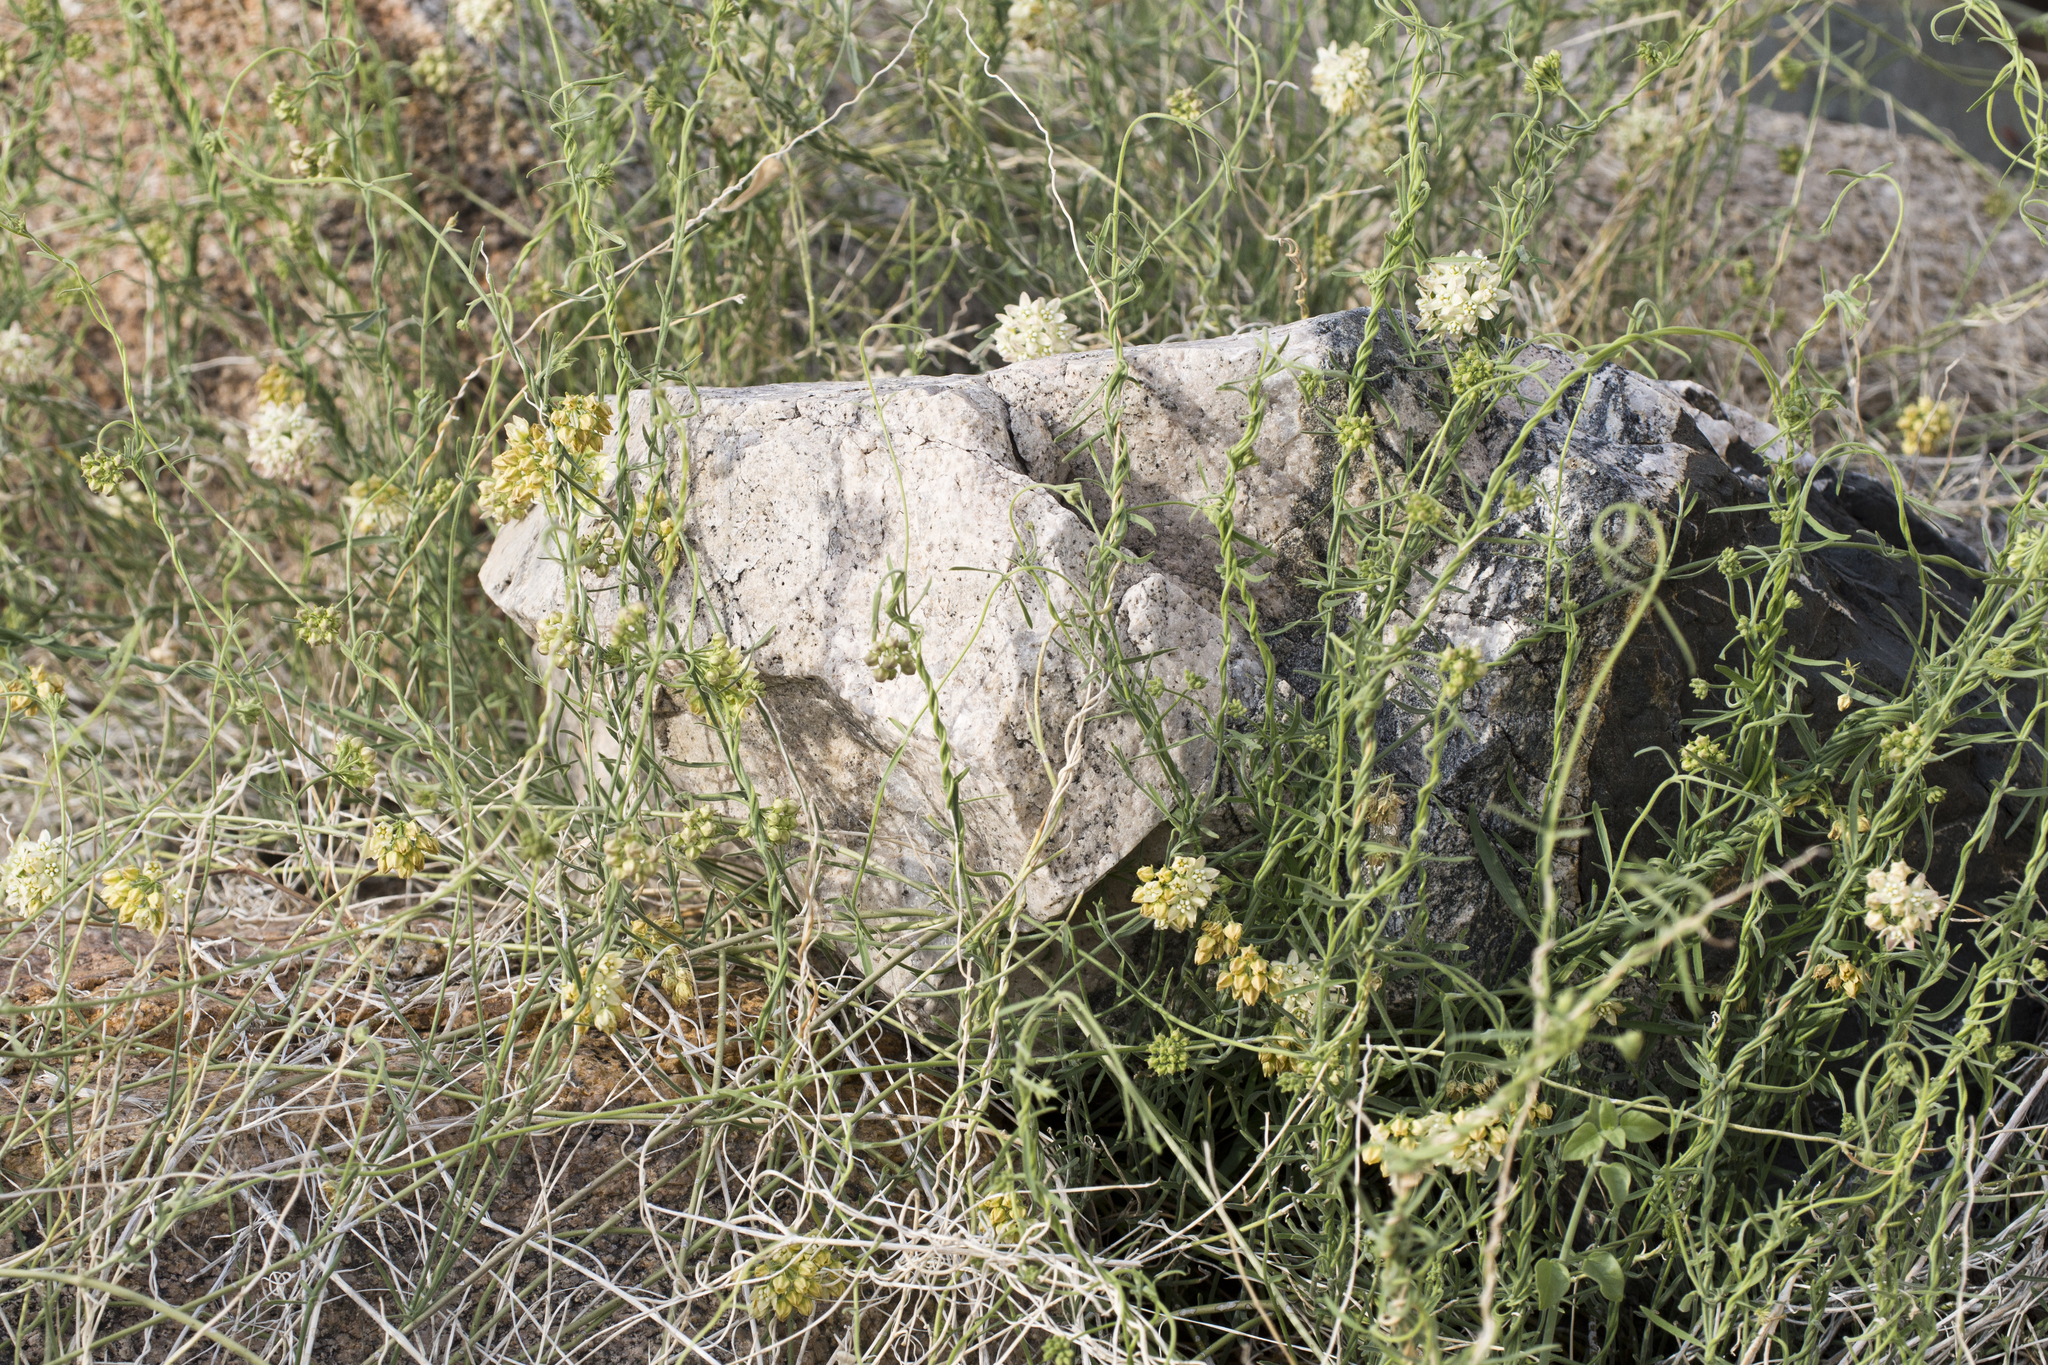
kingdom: Plantae
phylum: Tracheophyta
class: Magnoliopsida
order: Gentianales
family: Apocynaceae
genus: Funastrum
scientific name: Funastrum hirtellum
